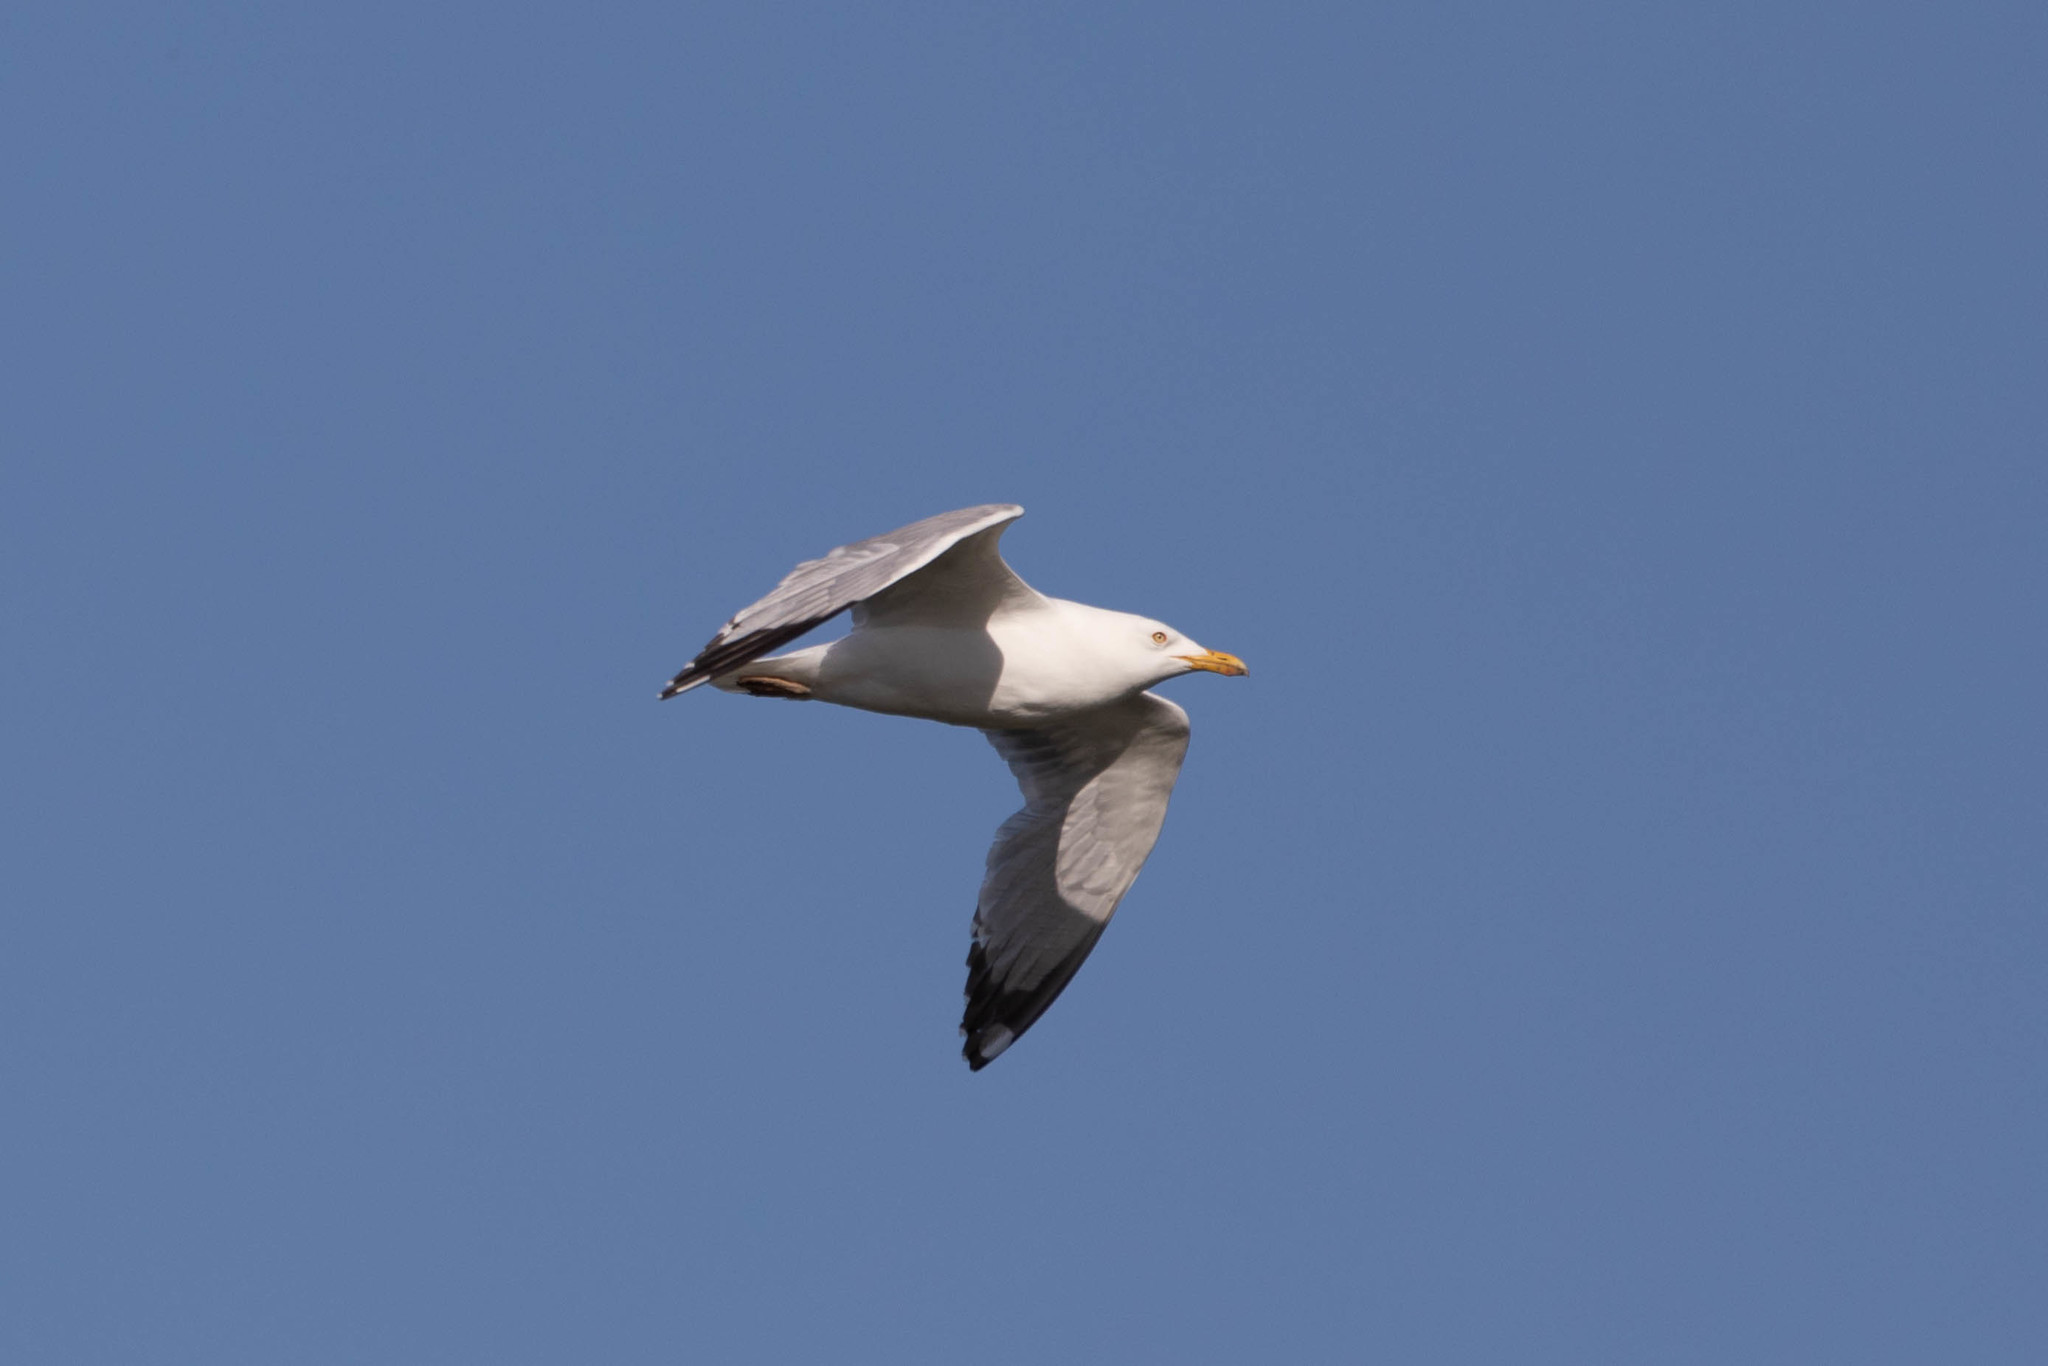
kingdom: Animalia
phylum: Chordata
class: Aves
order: Charadriiformes
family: Laridae
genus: Larus
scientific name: Larus argentatus
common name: Herring gull
